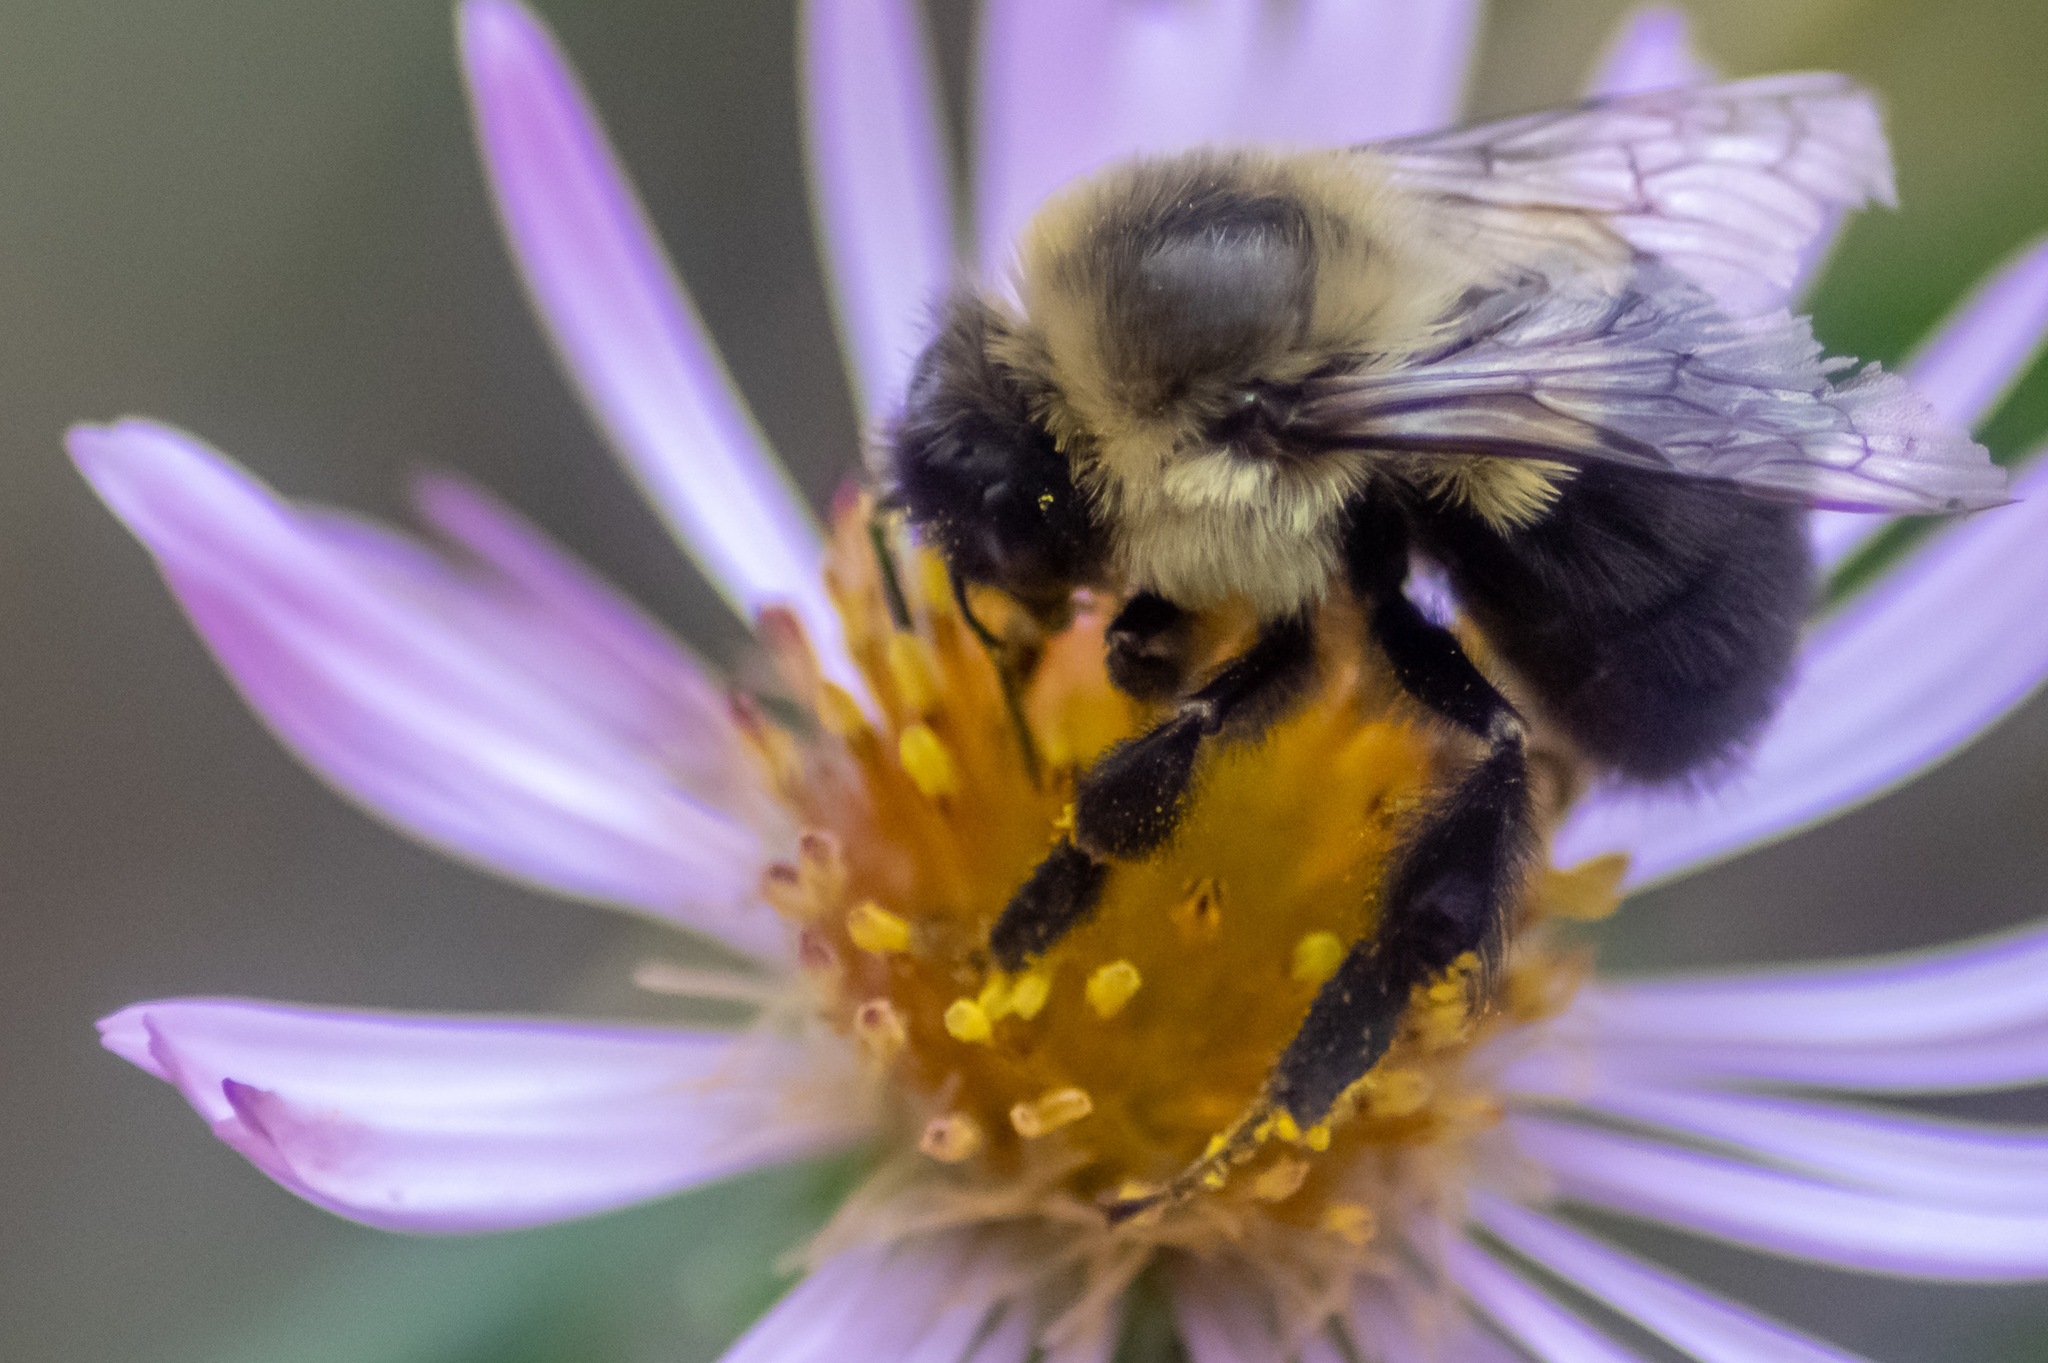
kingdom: Animalia
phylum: Arthropoda
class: Insecta
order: Hymenoptera
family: Apidae
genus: Bombus
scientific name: Bombus impatiens
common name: Common eastern bumble bee
